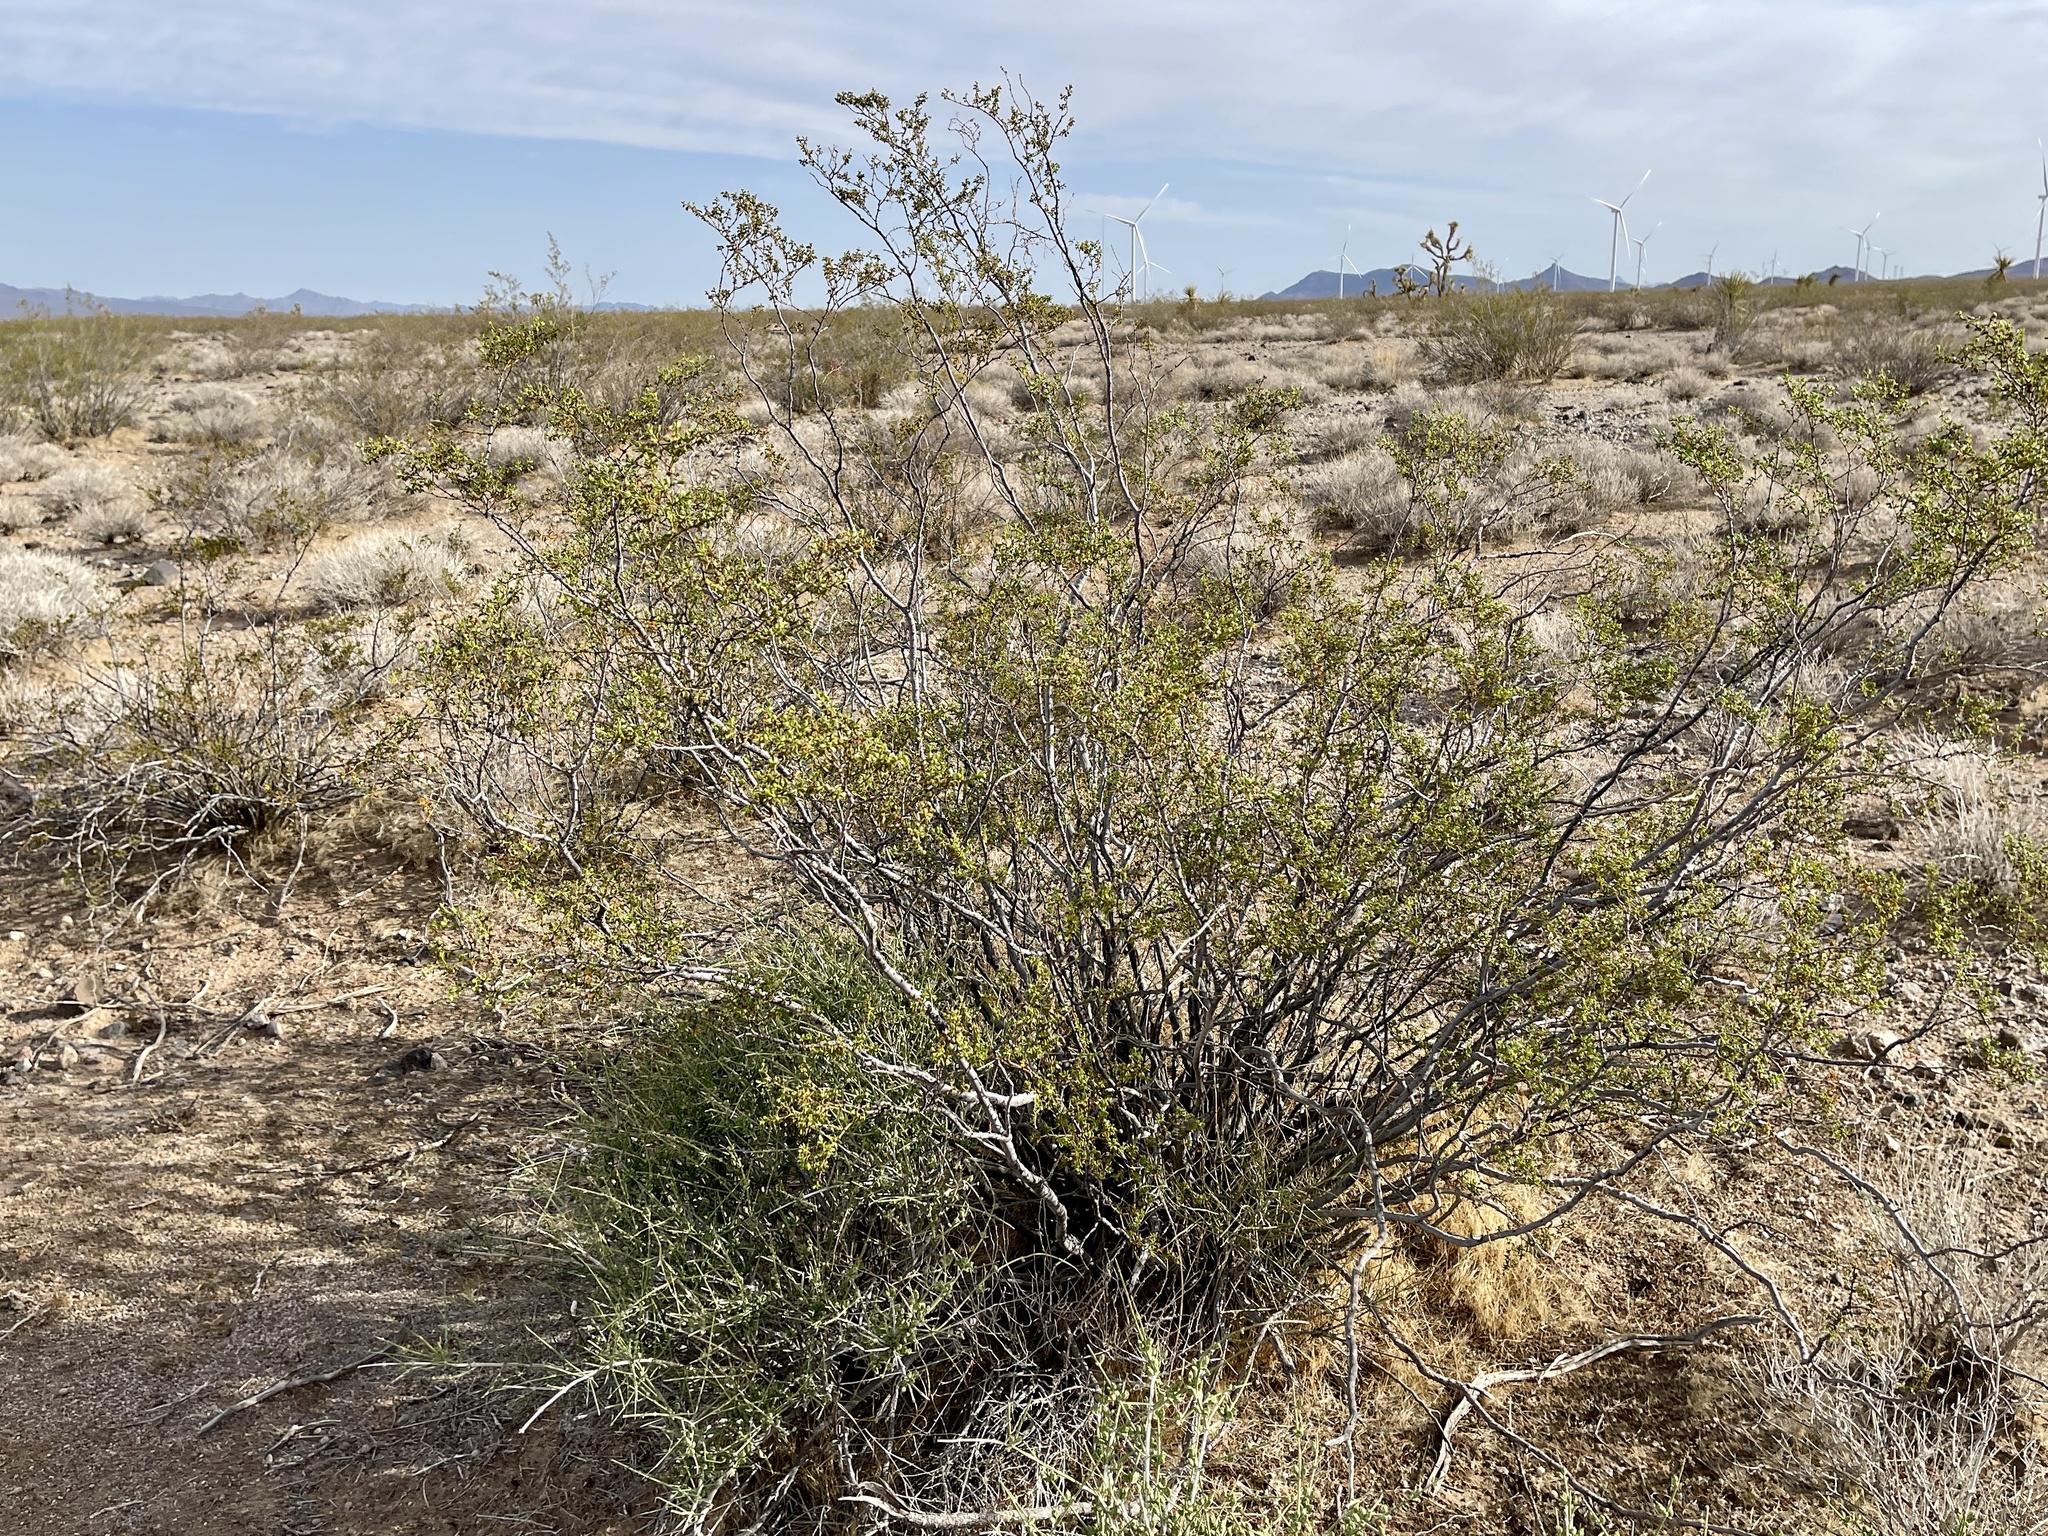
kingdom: Plantae
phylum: Tracheophyta
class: Magnoliopsida
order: Zygophyllales
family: Zygophyllaceae
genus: Larrea
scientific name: Larrea tridentata
